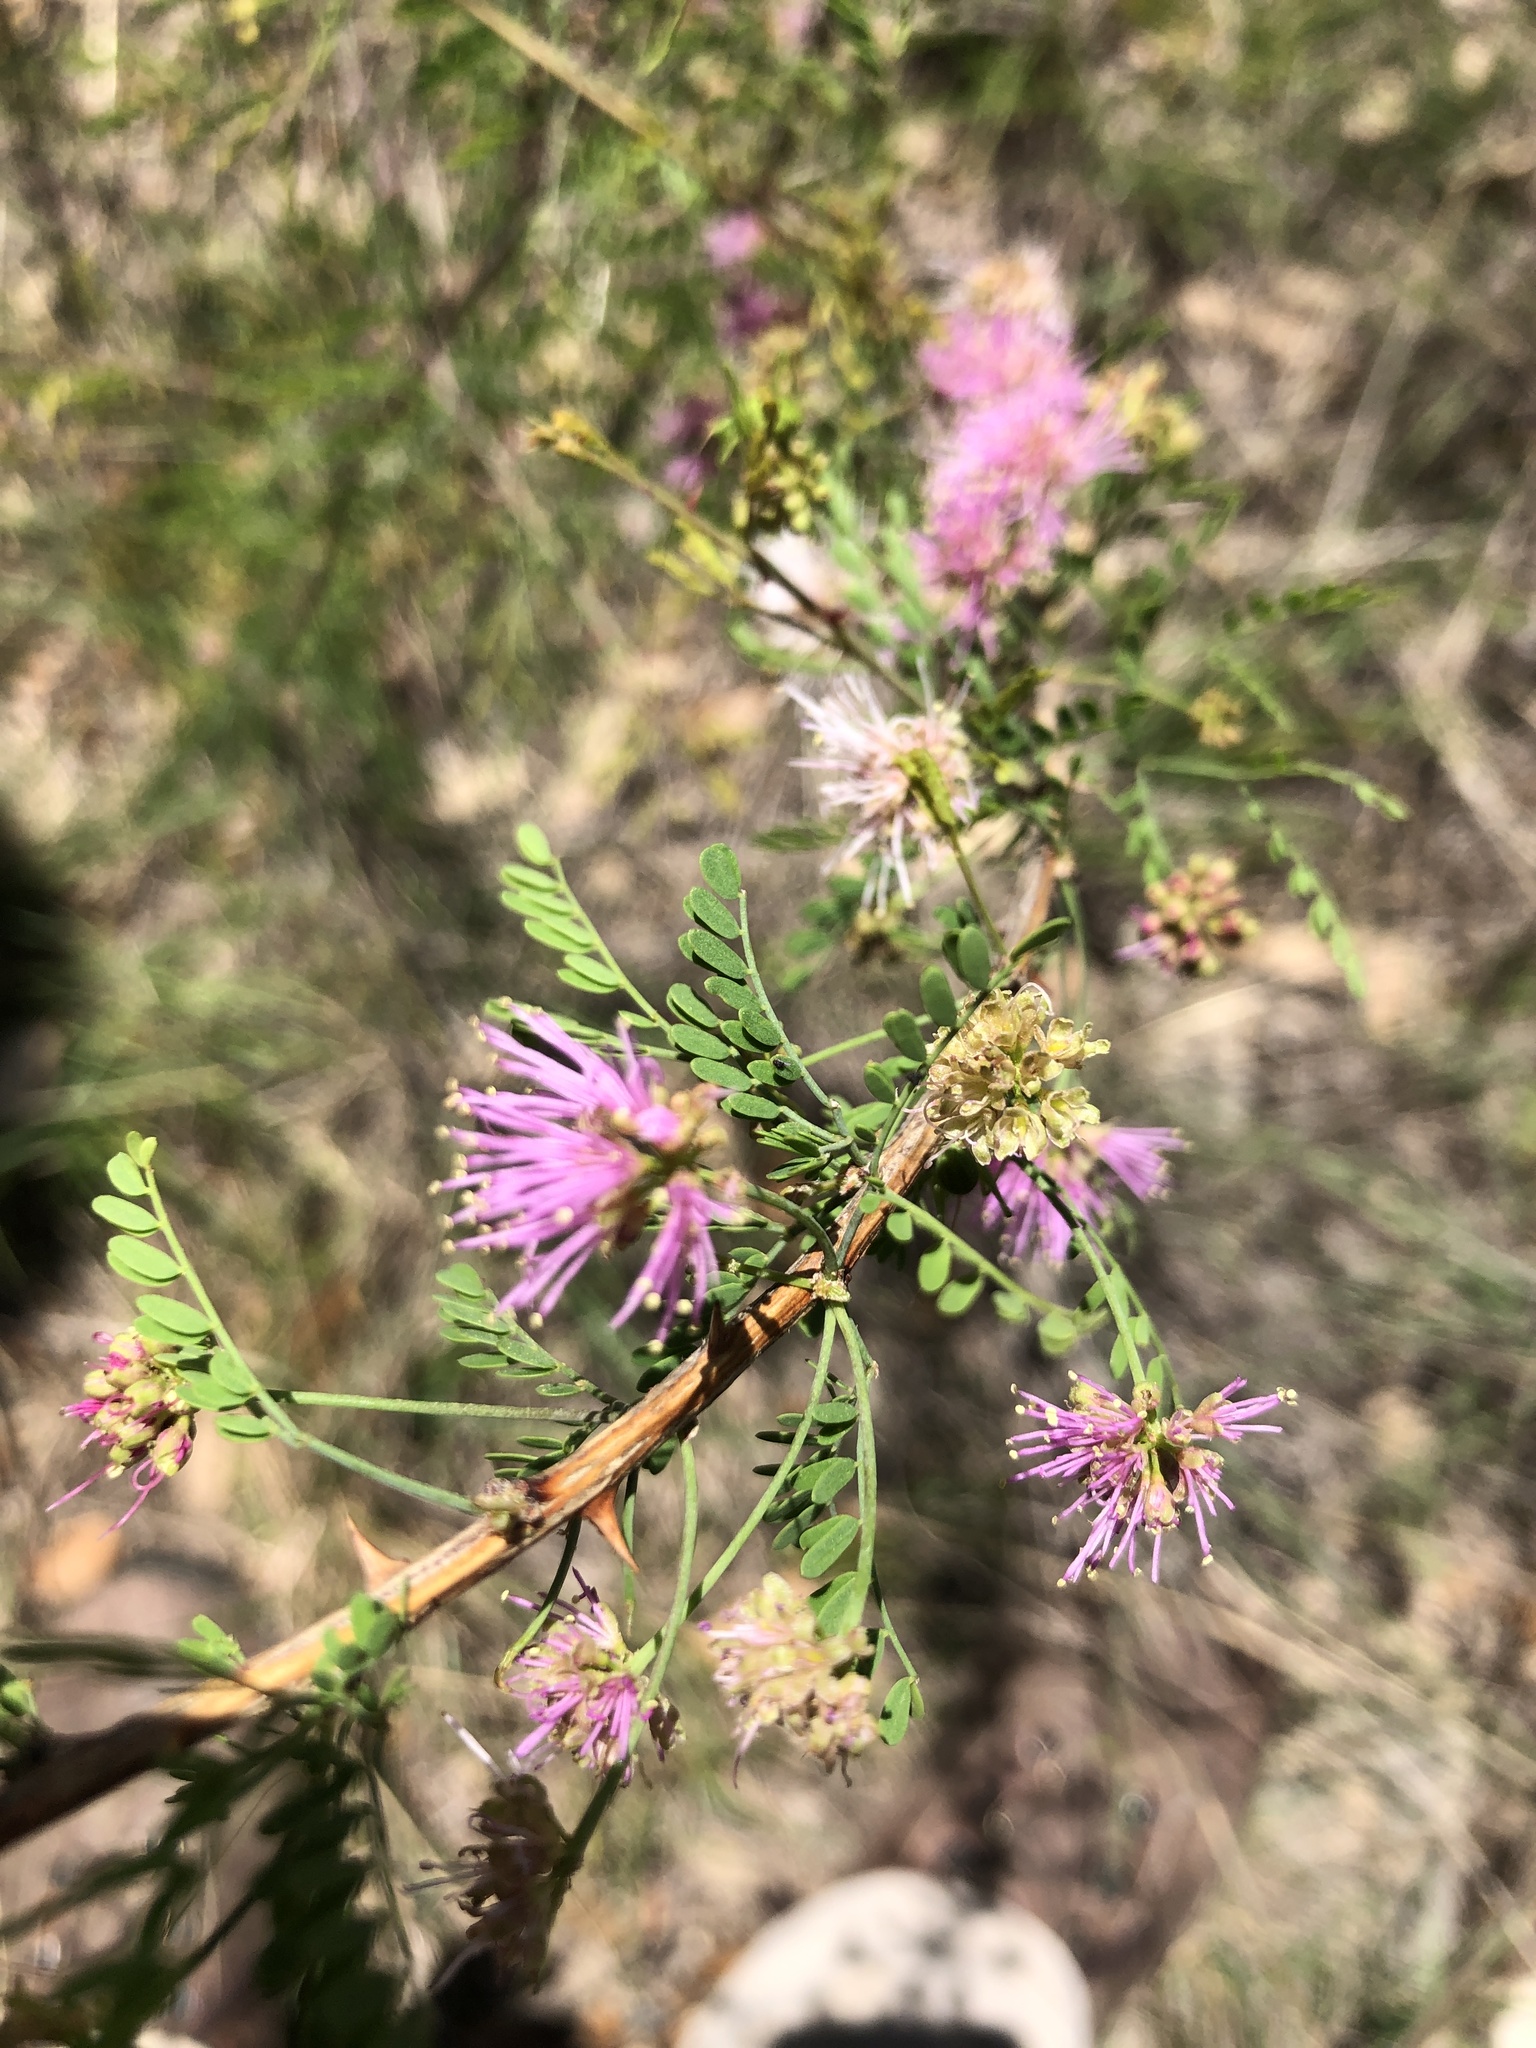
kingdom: Plantae
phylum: Tracheophyta
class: Magnoliopsida
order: Fabales
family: Fabaceae
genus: Mimosa
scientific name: Mimosa borealis
